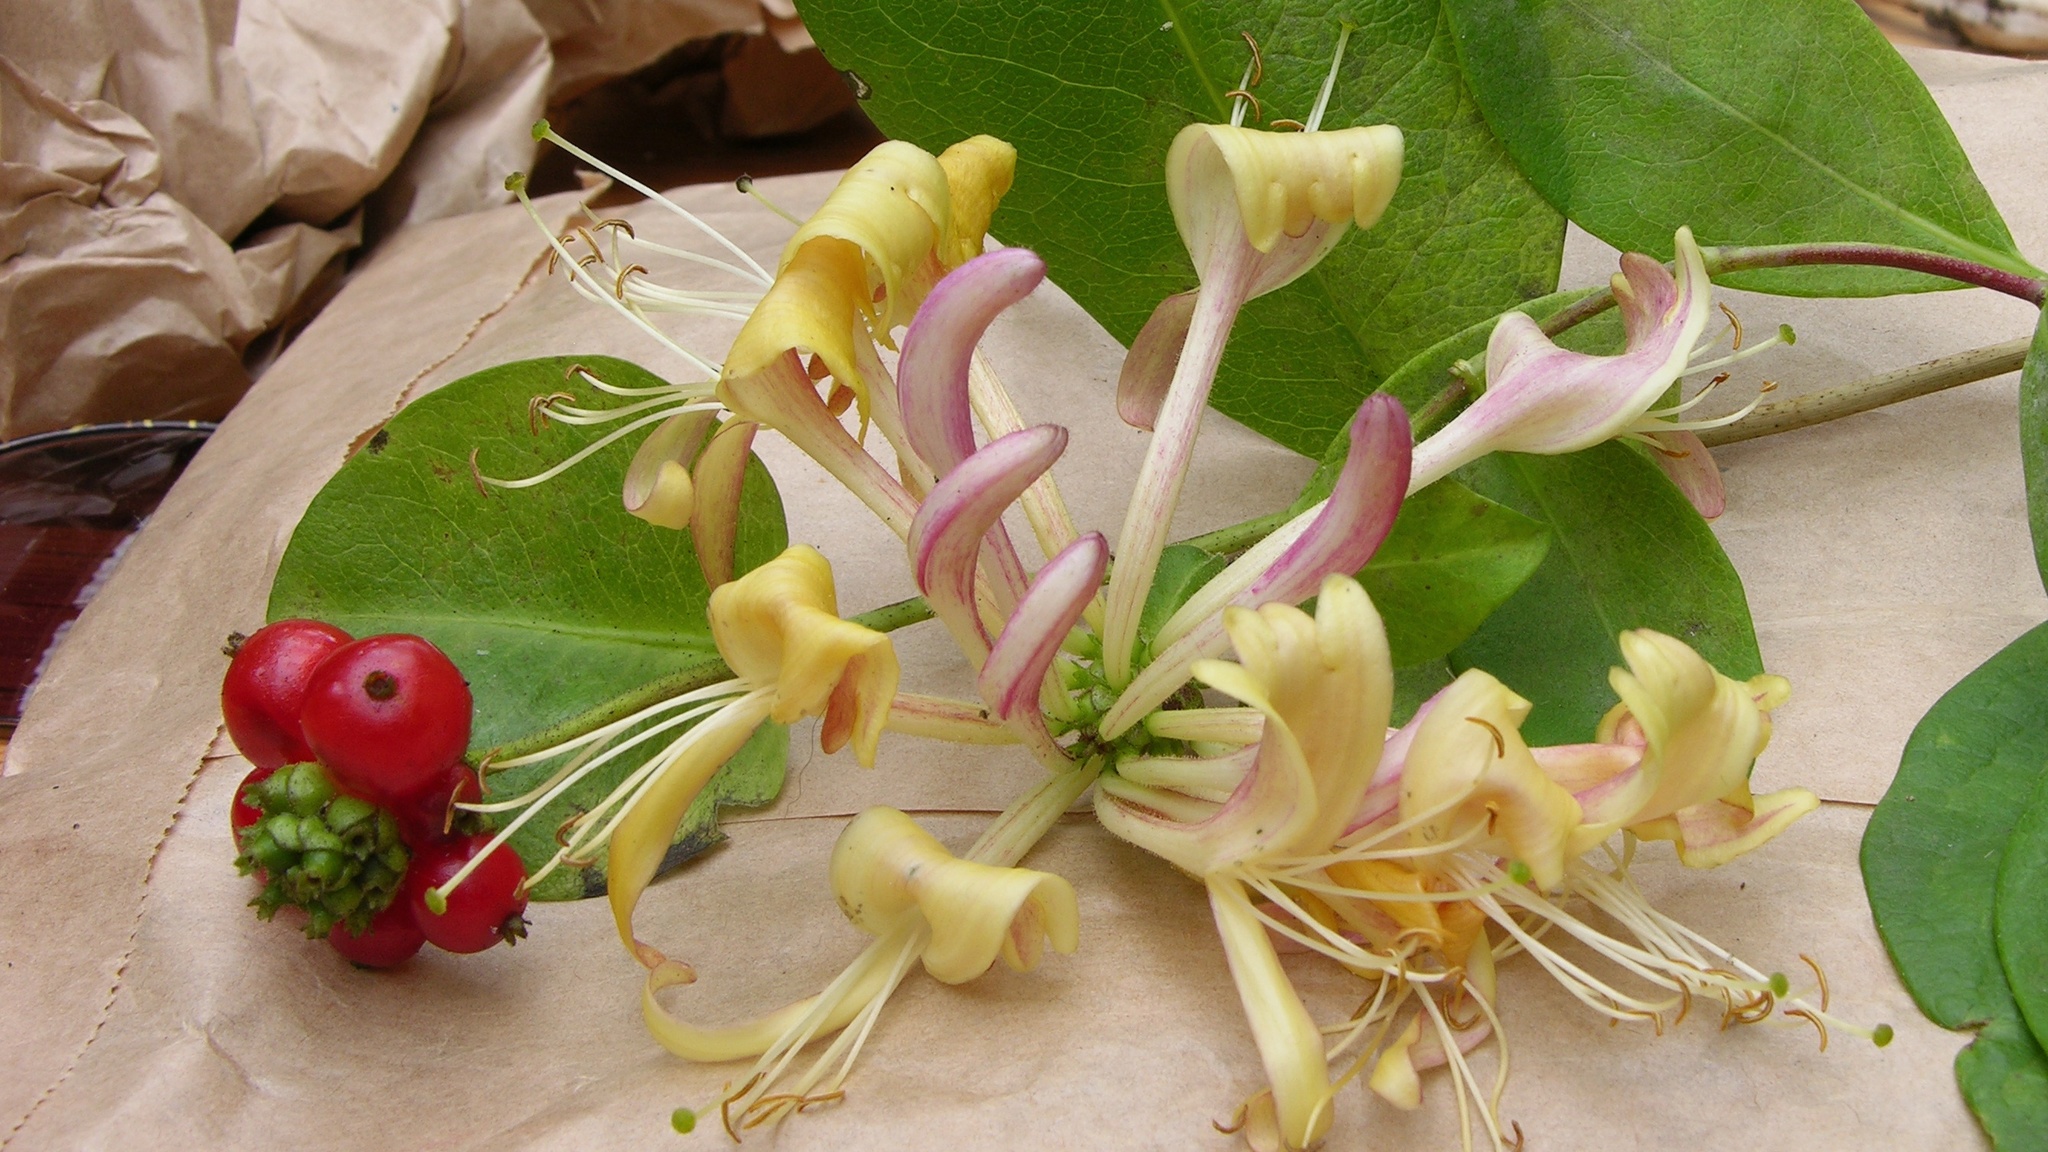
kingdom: Plantae
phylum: Tracheophyta
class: Magnoliopsida
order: Dipsacales
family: Caprifoliaceae
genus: Lonicera
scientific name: Lonicera periclymenum
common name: European honeysuckle
